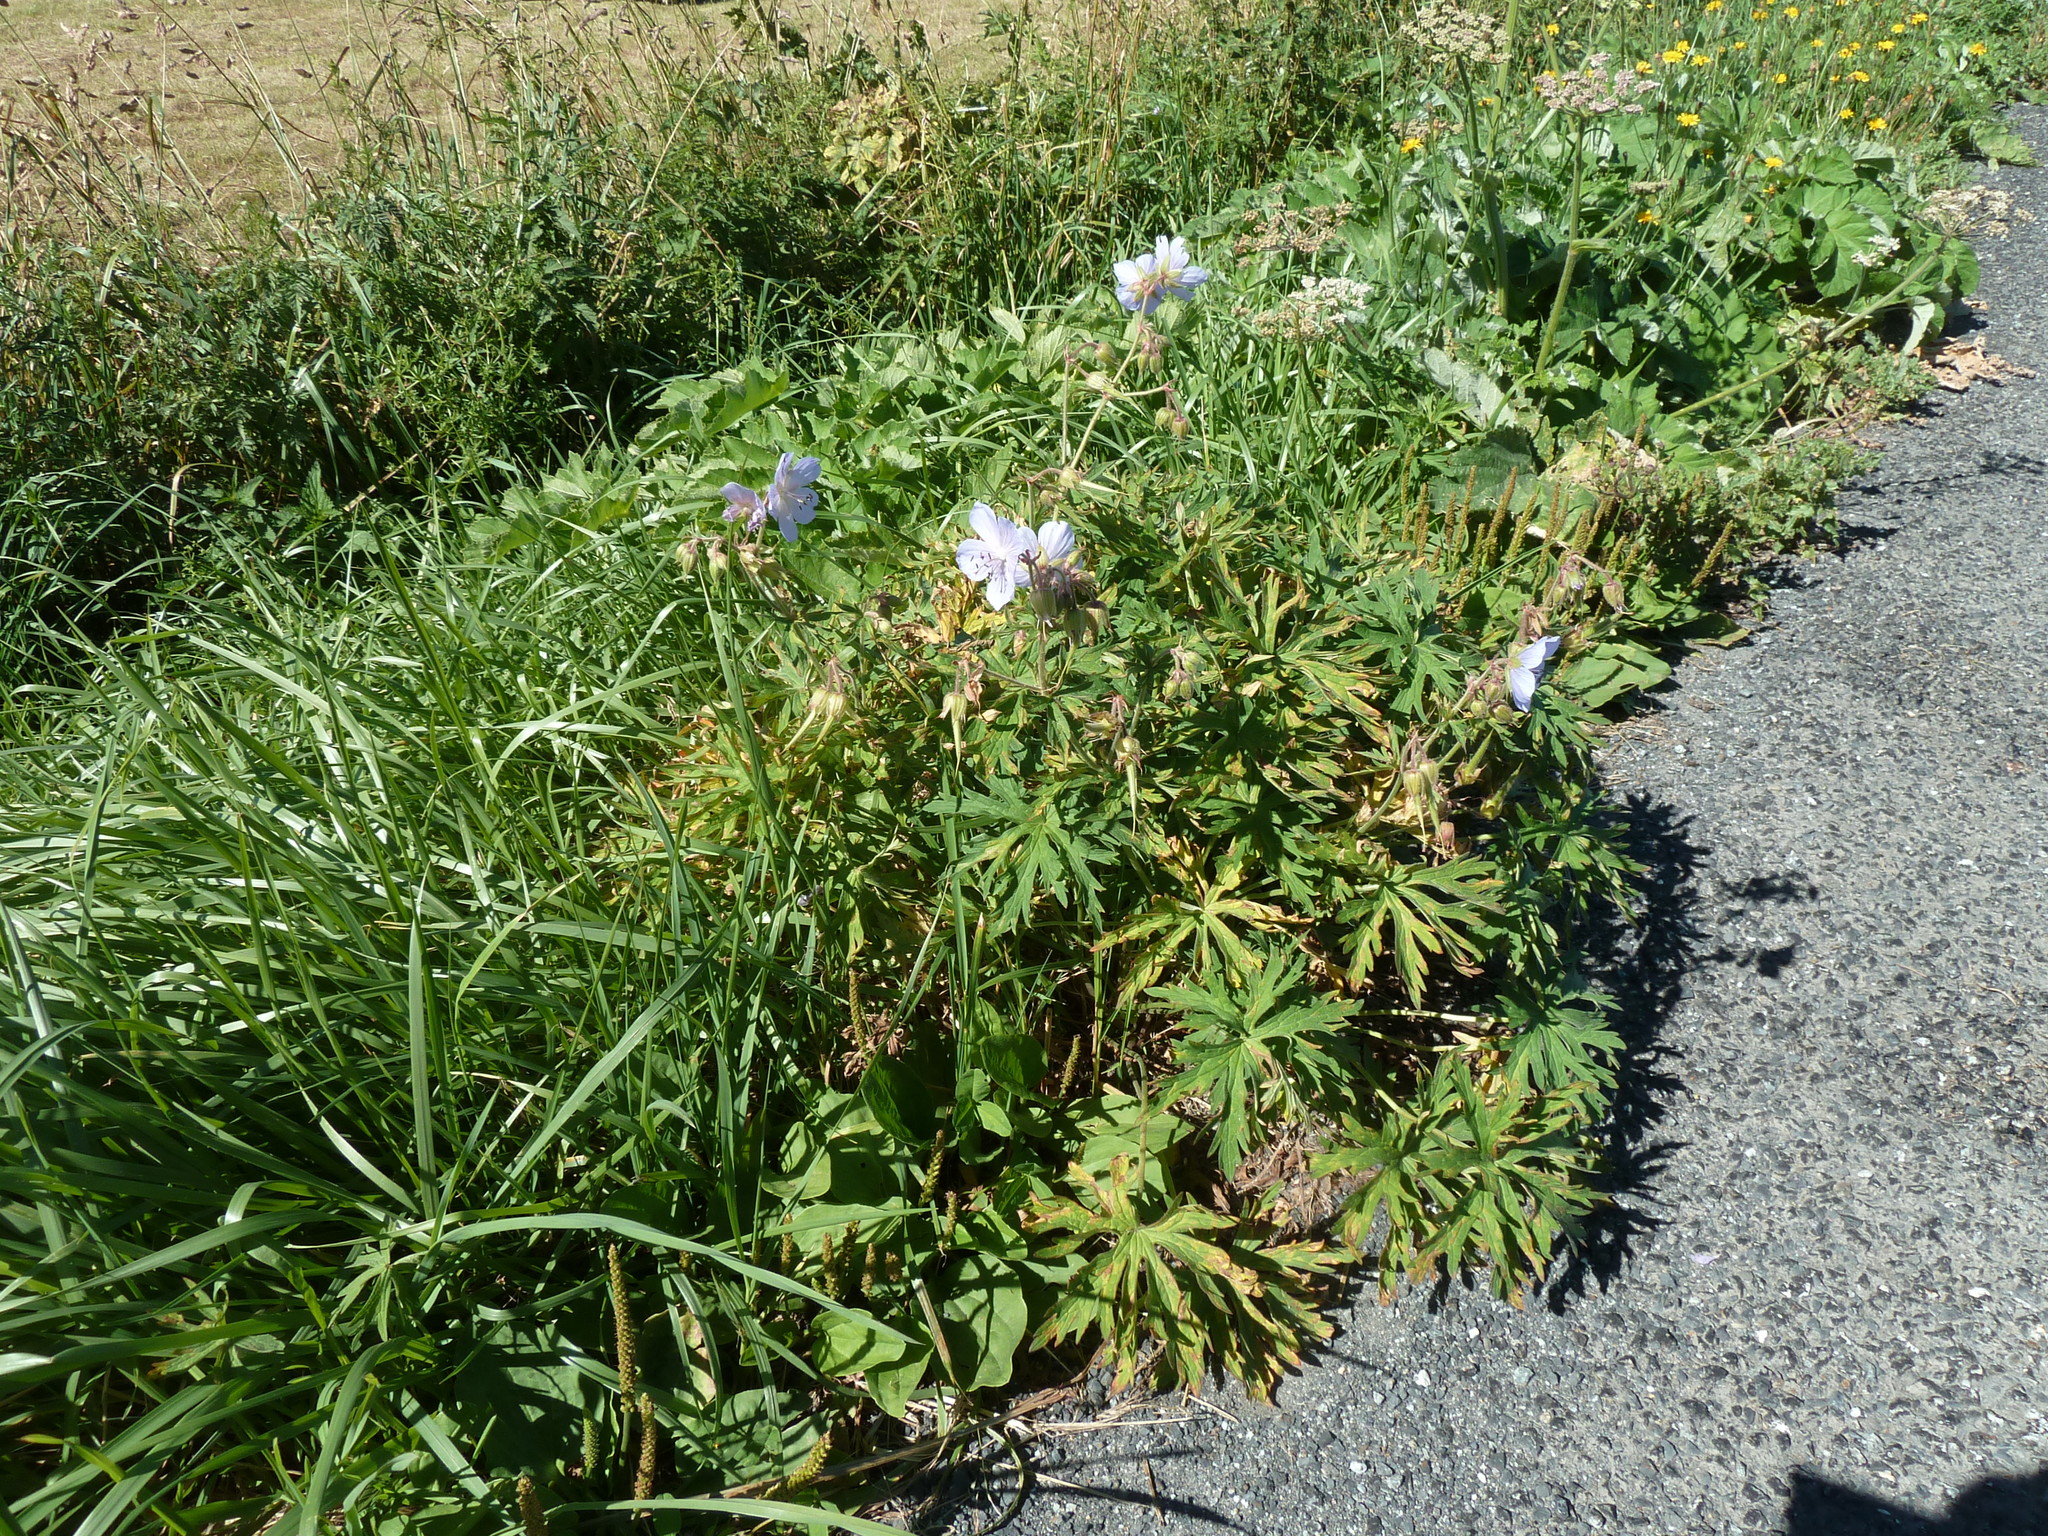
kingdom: Plantae
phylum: Tracheophyta
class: Magnoliopsida
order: Geraniales
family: Geraniaceae
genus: Geranium
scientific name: Geranium pratense
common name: Meadow crane's-bill
